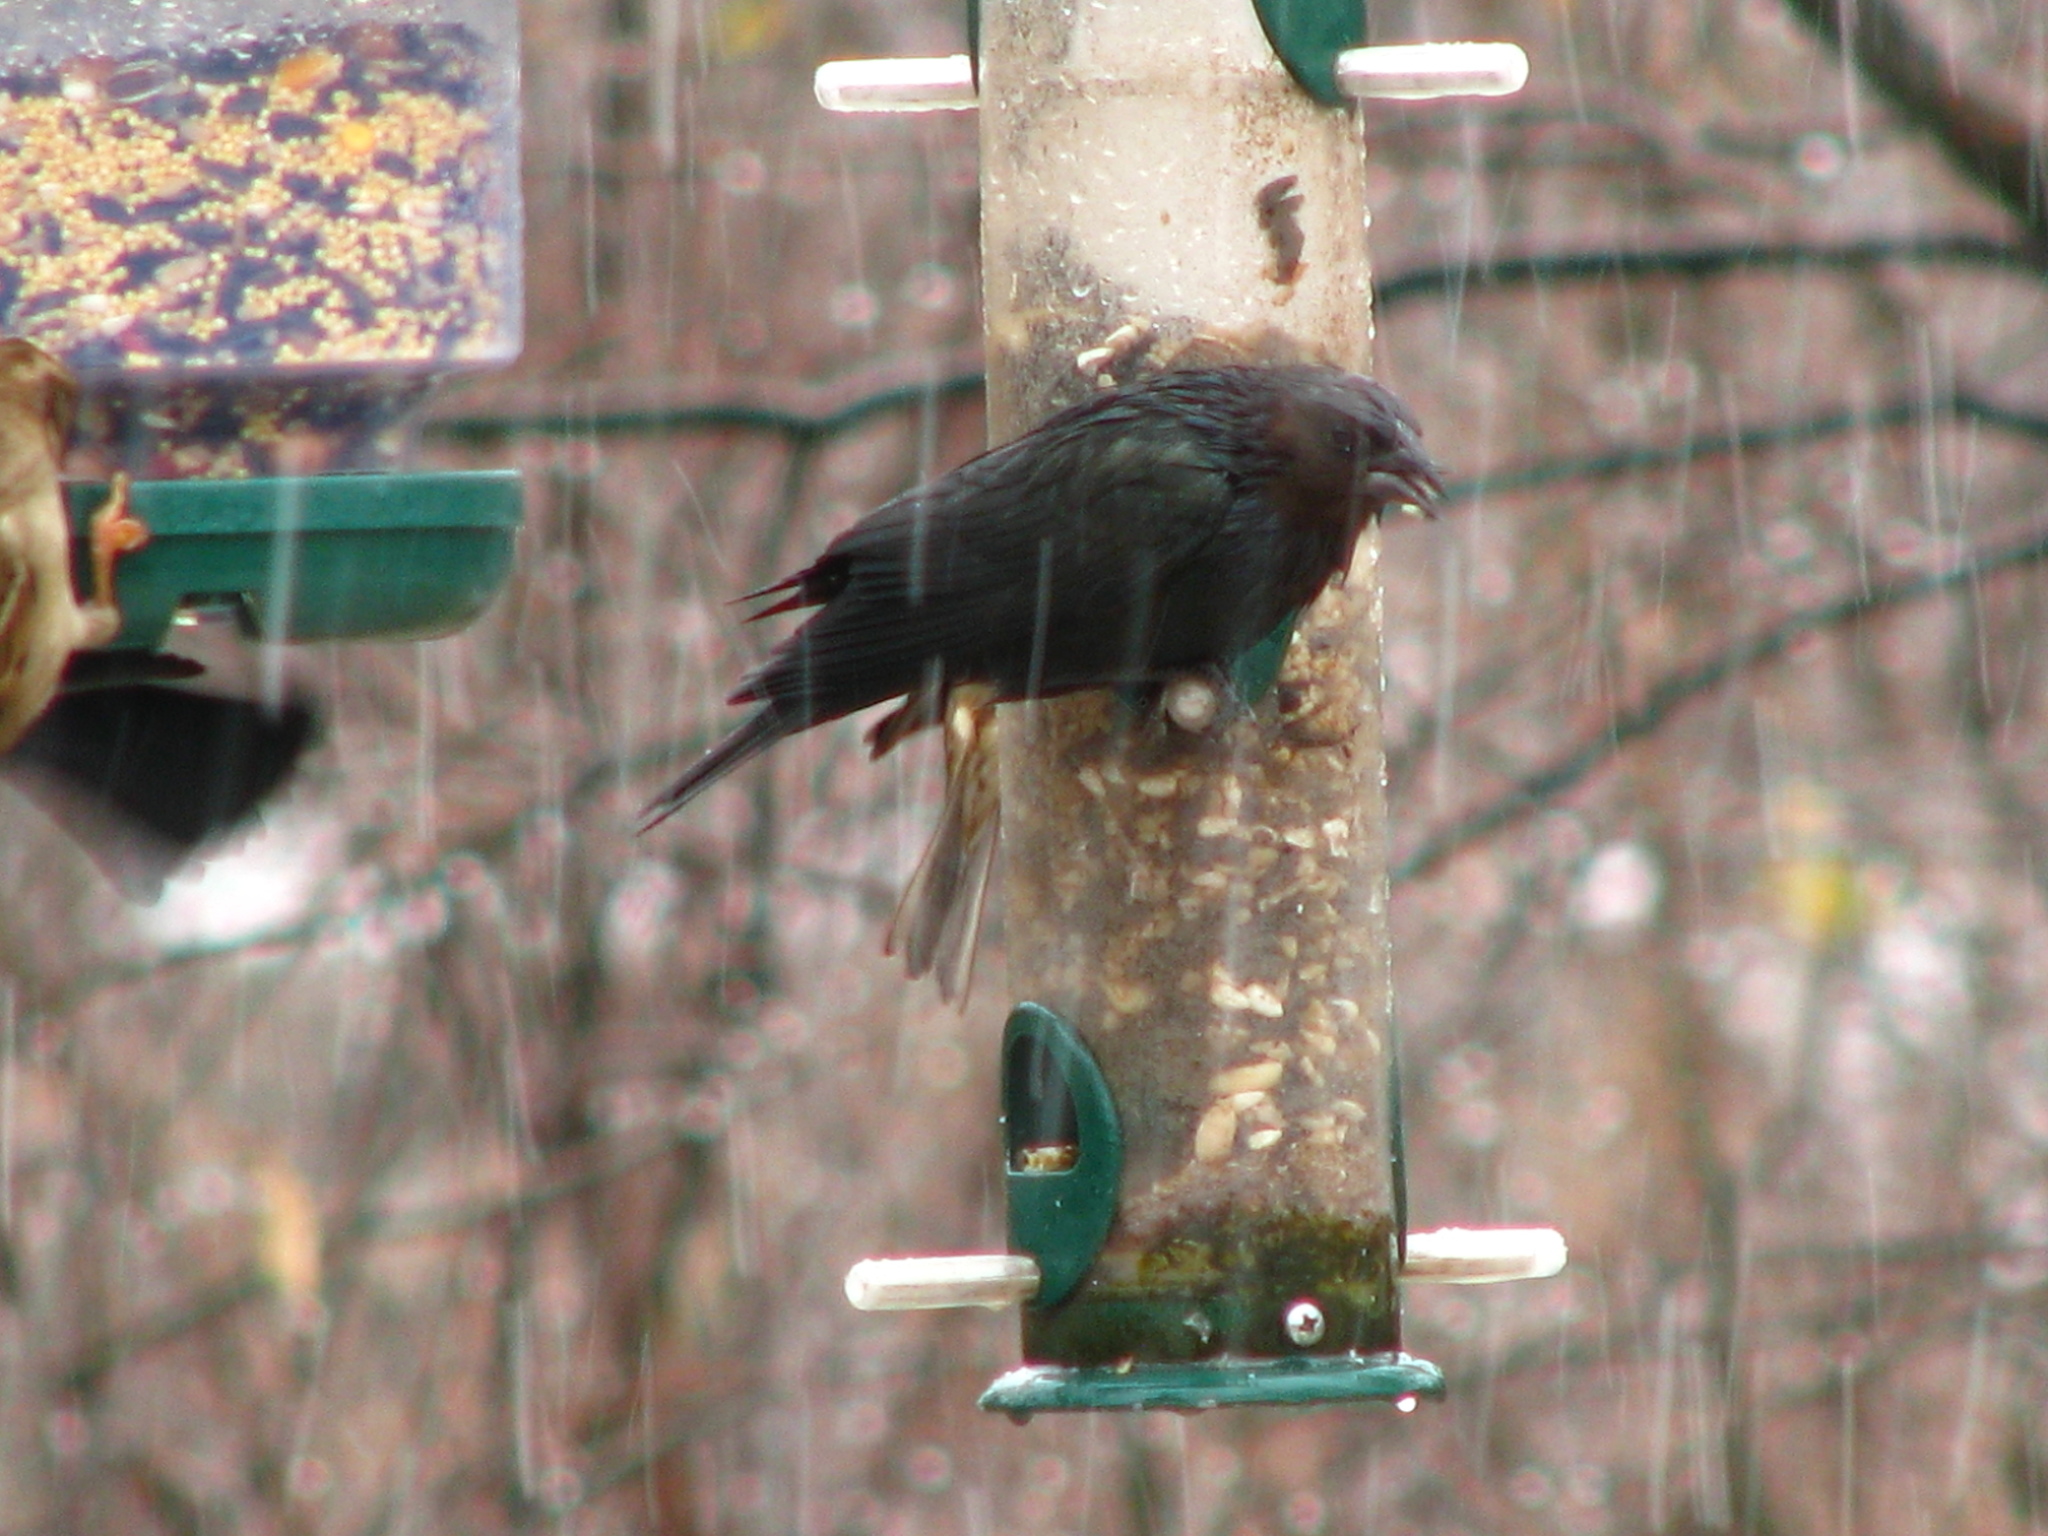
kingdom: Animalia
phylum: Chordata
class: Aves
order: Passeriformes
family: Icteridae
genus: Molothrus
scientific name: Molothrus ater
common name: Brown-headed cowbird
